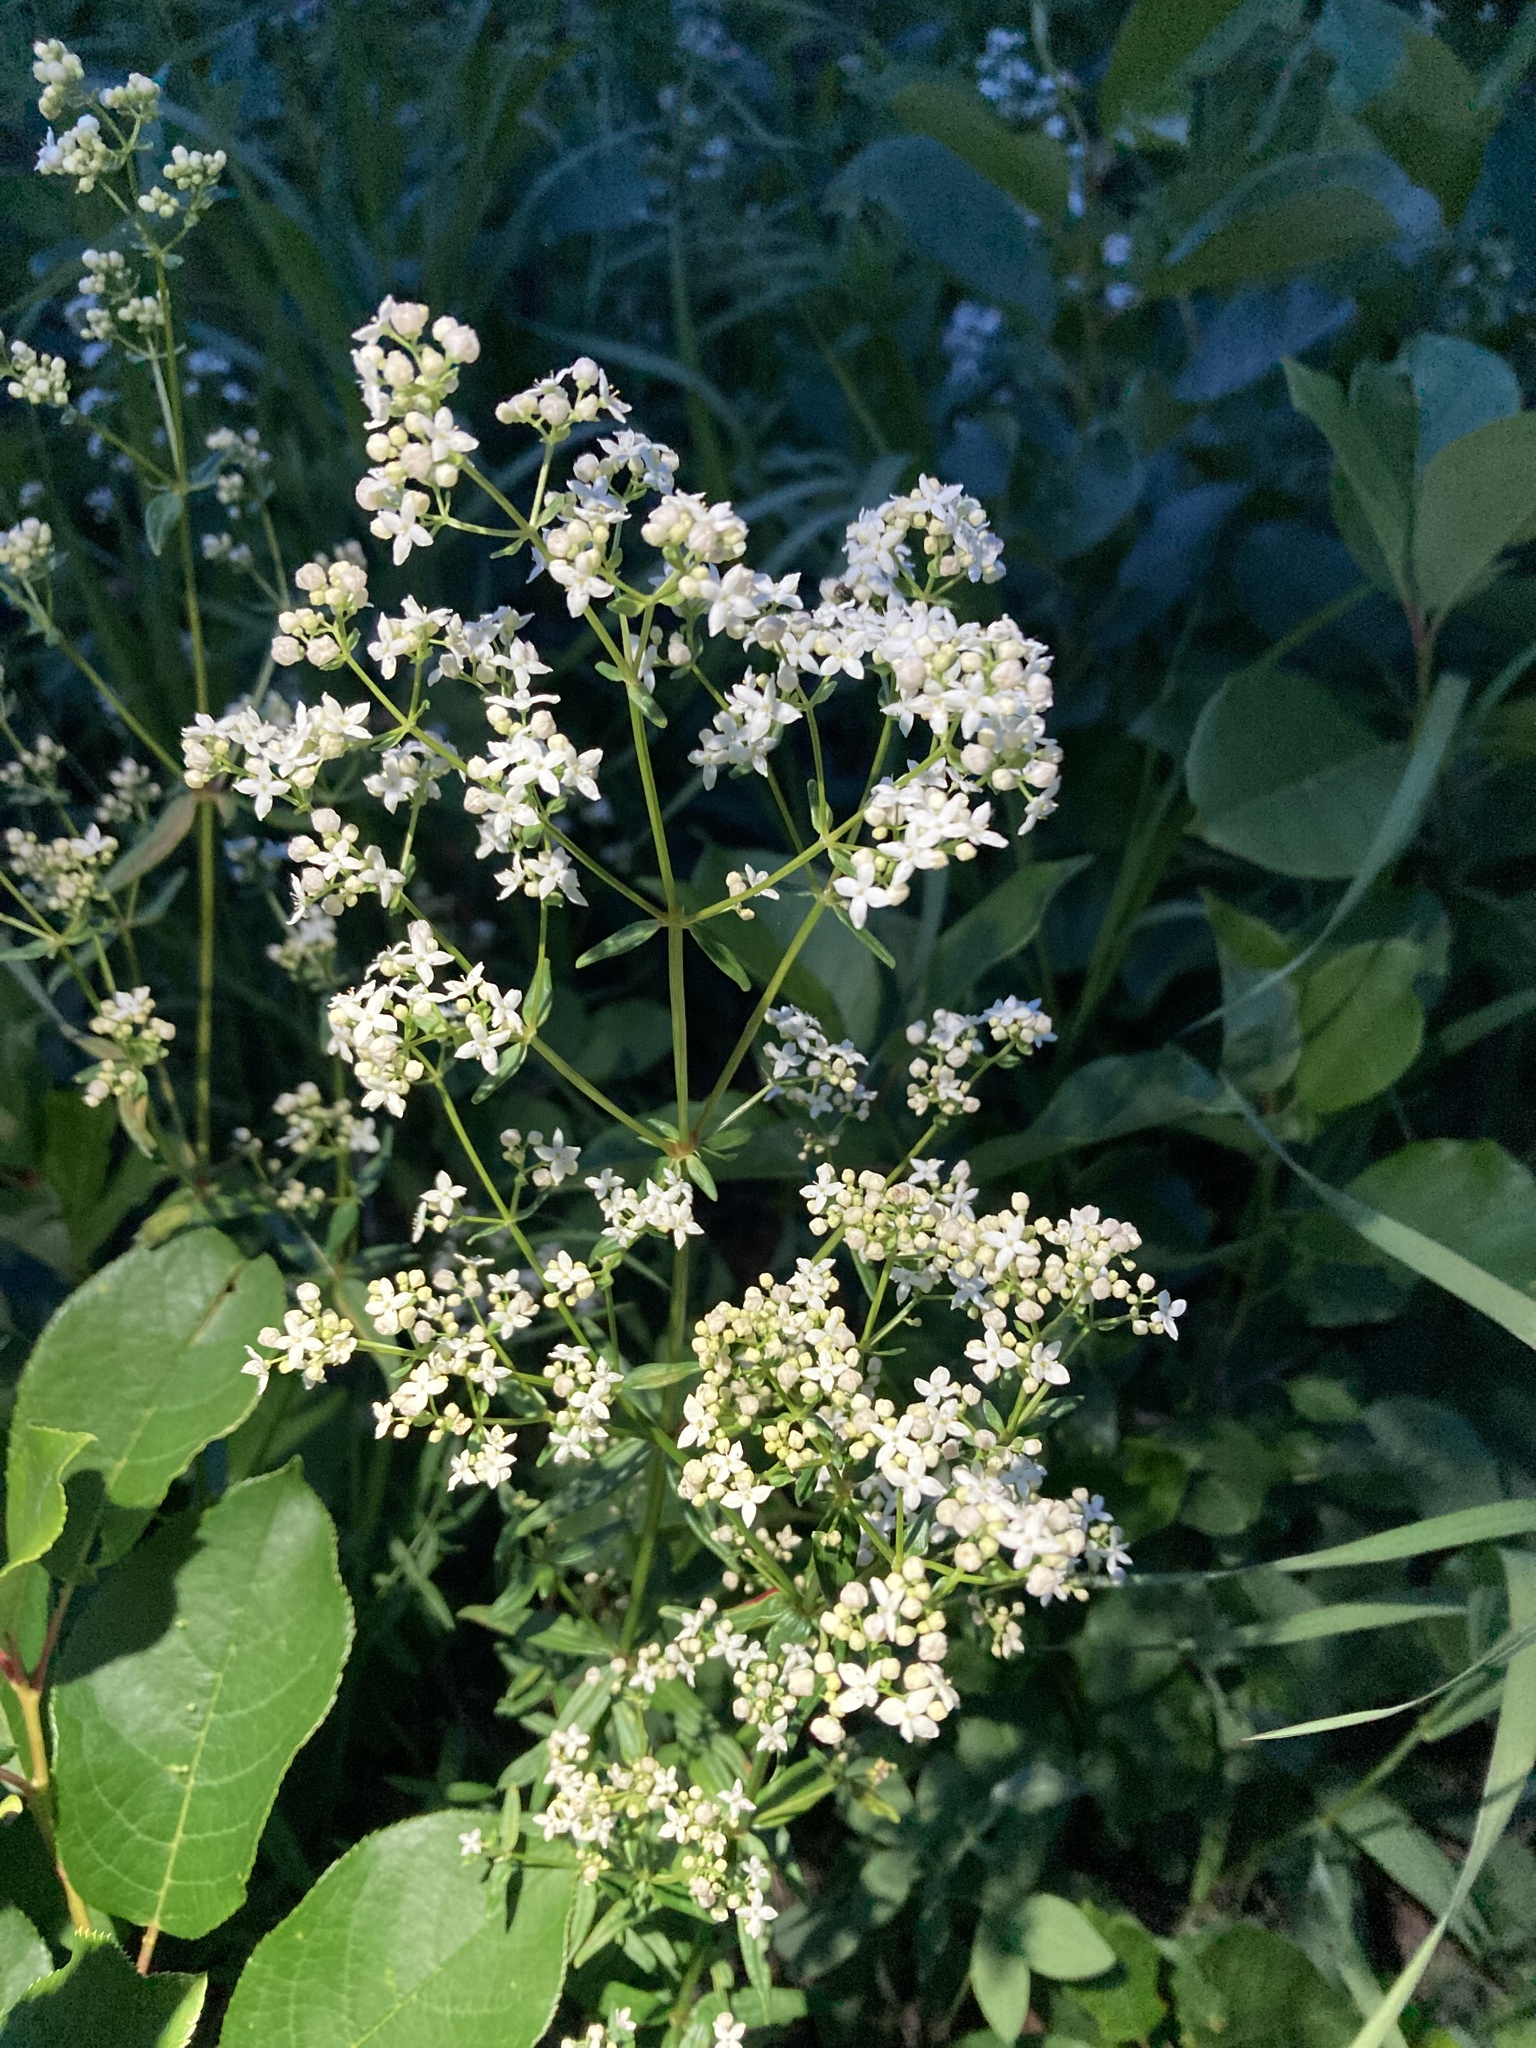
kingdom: Plantae
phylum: Tracheophyta
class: Magnoliopsida
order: Gentianales
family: Rubiaceae
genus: Galium
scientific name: Galium boreale
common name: Northern bedstraw
